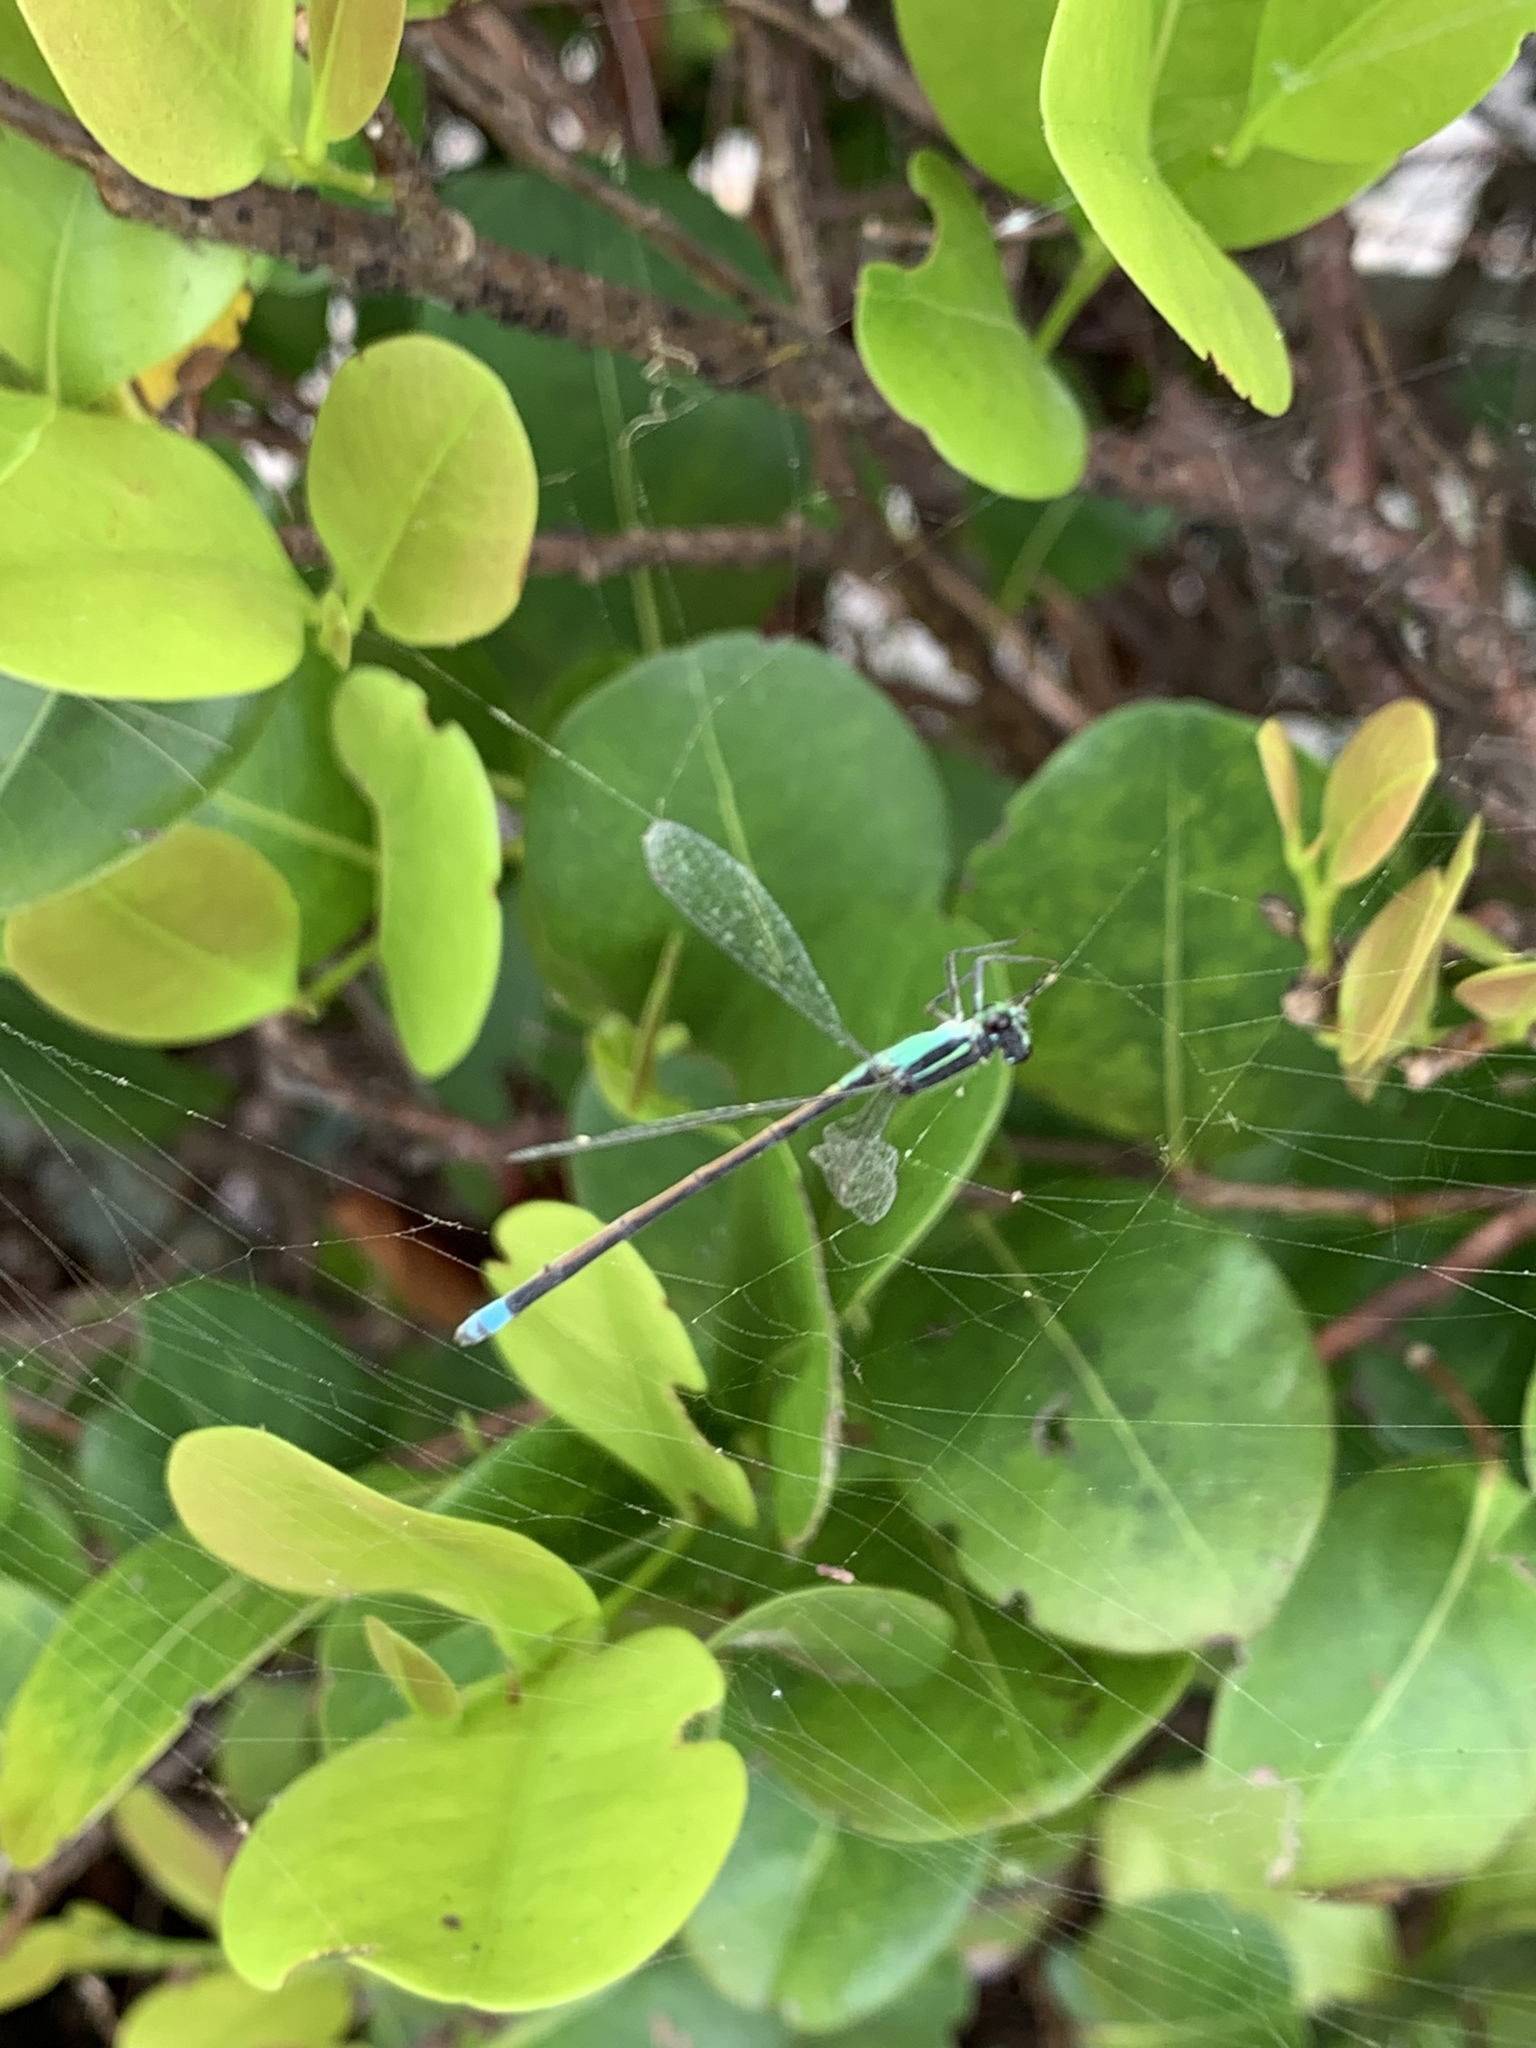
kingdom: Animalia
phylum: Arthropoda
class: Insecta
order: Odonata
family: Coenagrionidae
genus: Ischnura
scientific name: Ischnura ramburii
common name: Rambur's forktail
